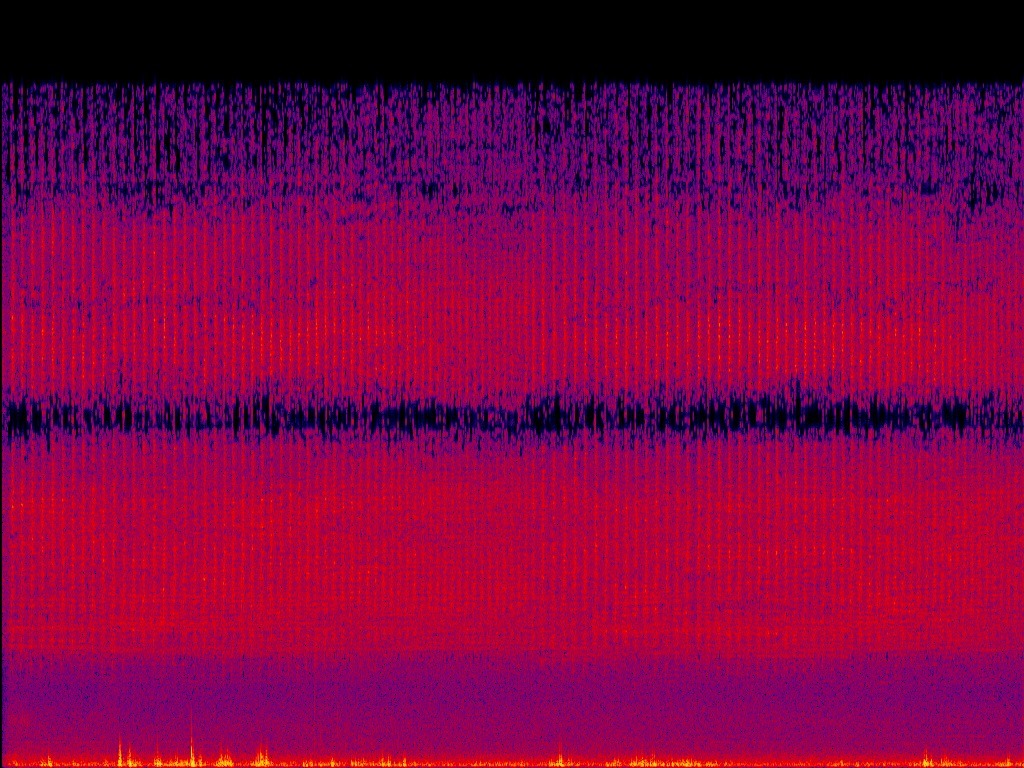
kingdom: Animalia
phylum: Arthropoda
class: Insecta
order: Hemiptera
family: Cicadidae
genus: Cryptotympana
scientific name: Cryptotympana takasagona
